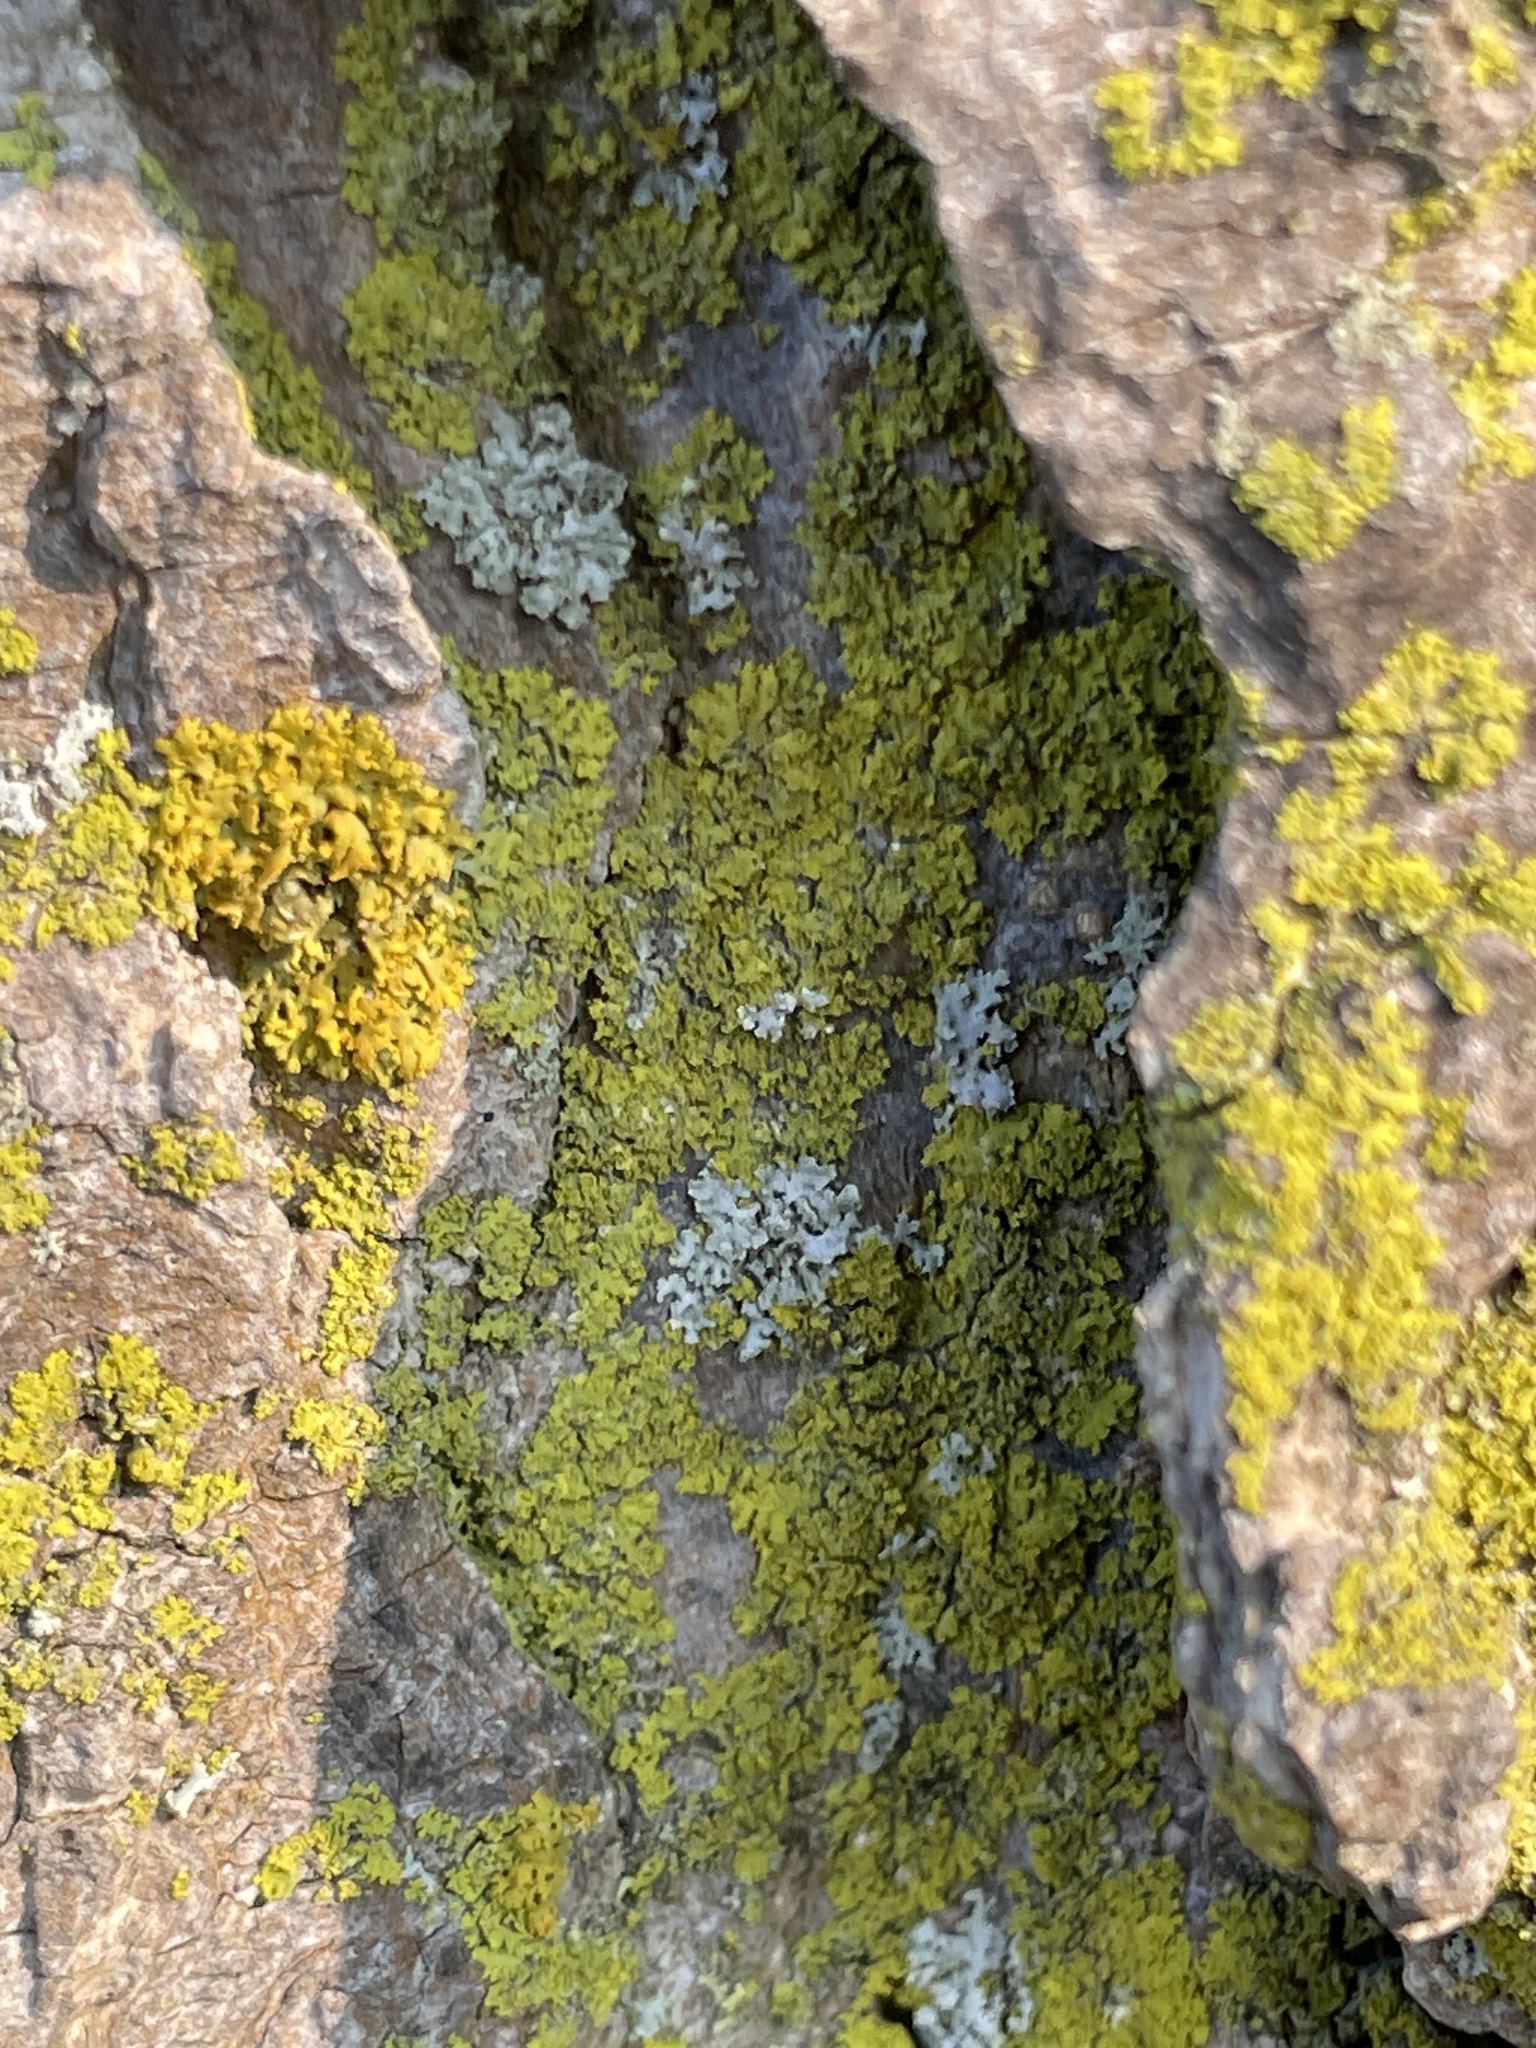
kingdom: Fungi
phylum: Ascomycota
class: Candelariomycetes
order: Candelariales
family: Candelariaceae
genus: Candelaria
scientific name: Candelaria concolor
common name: Candleflame lichen
